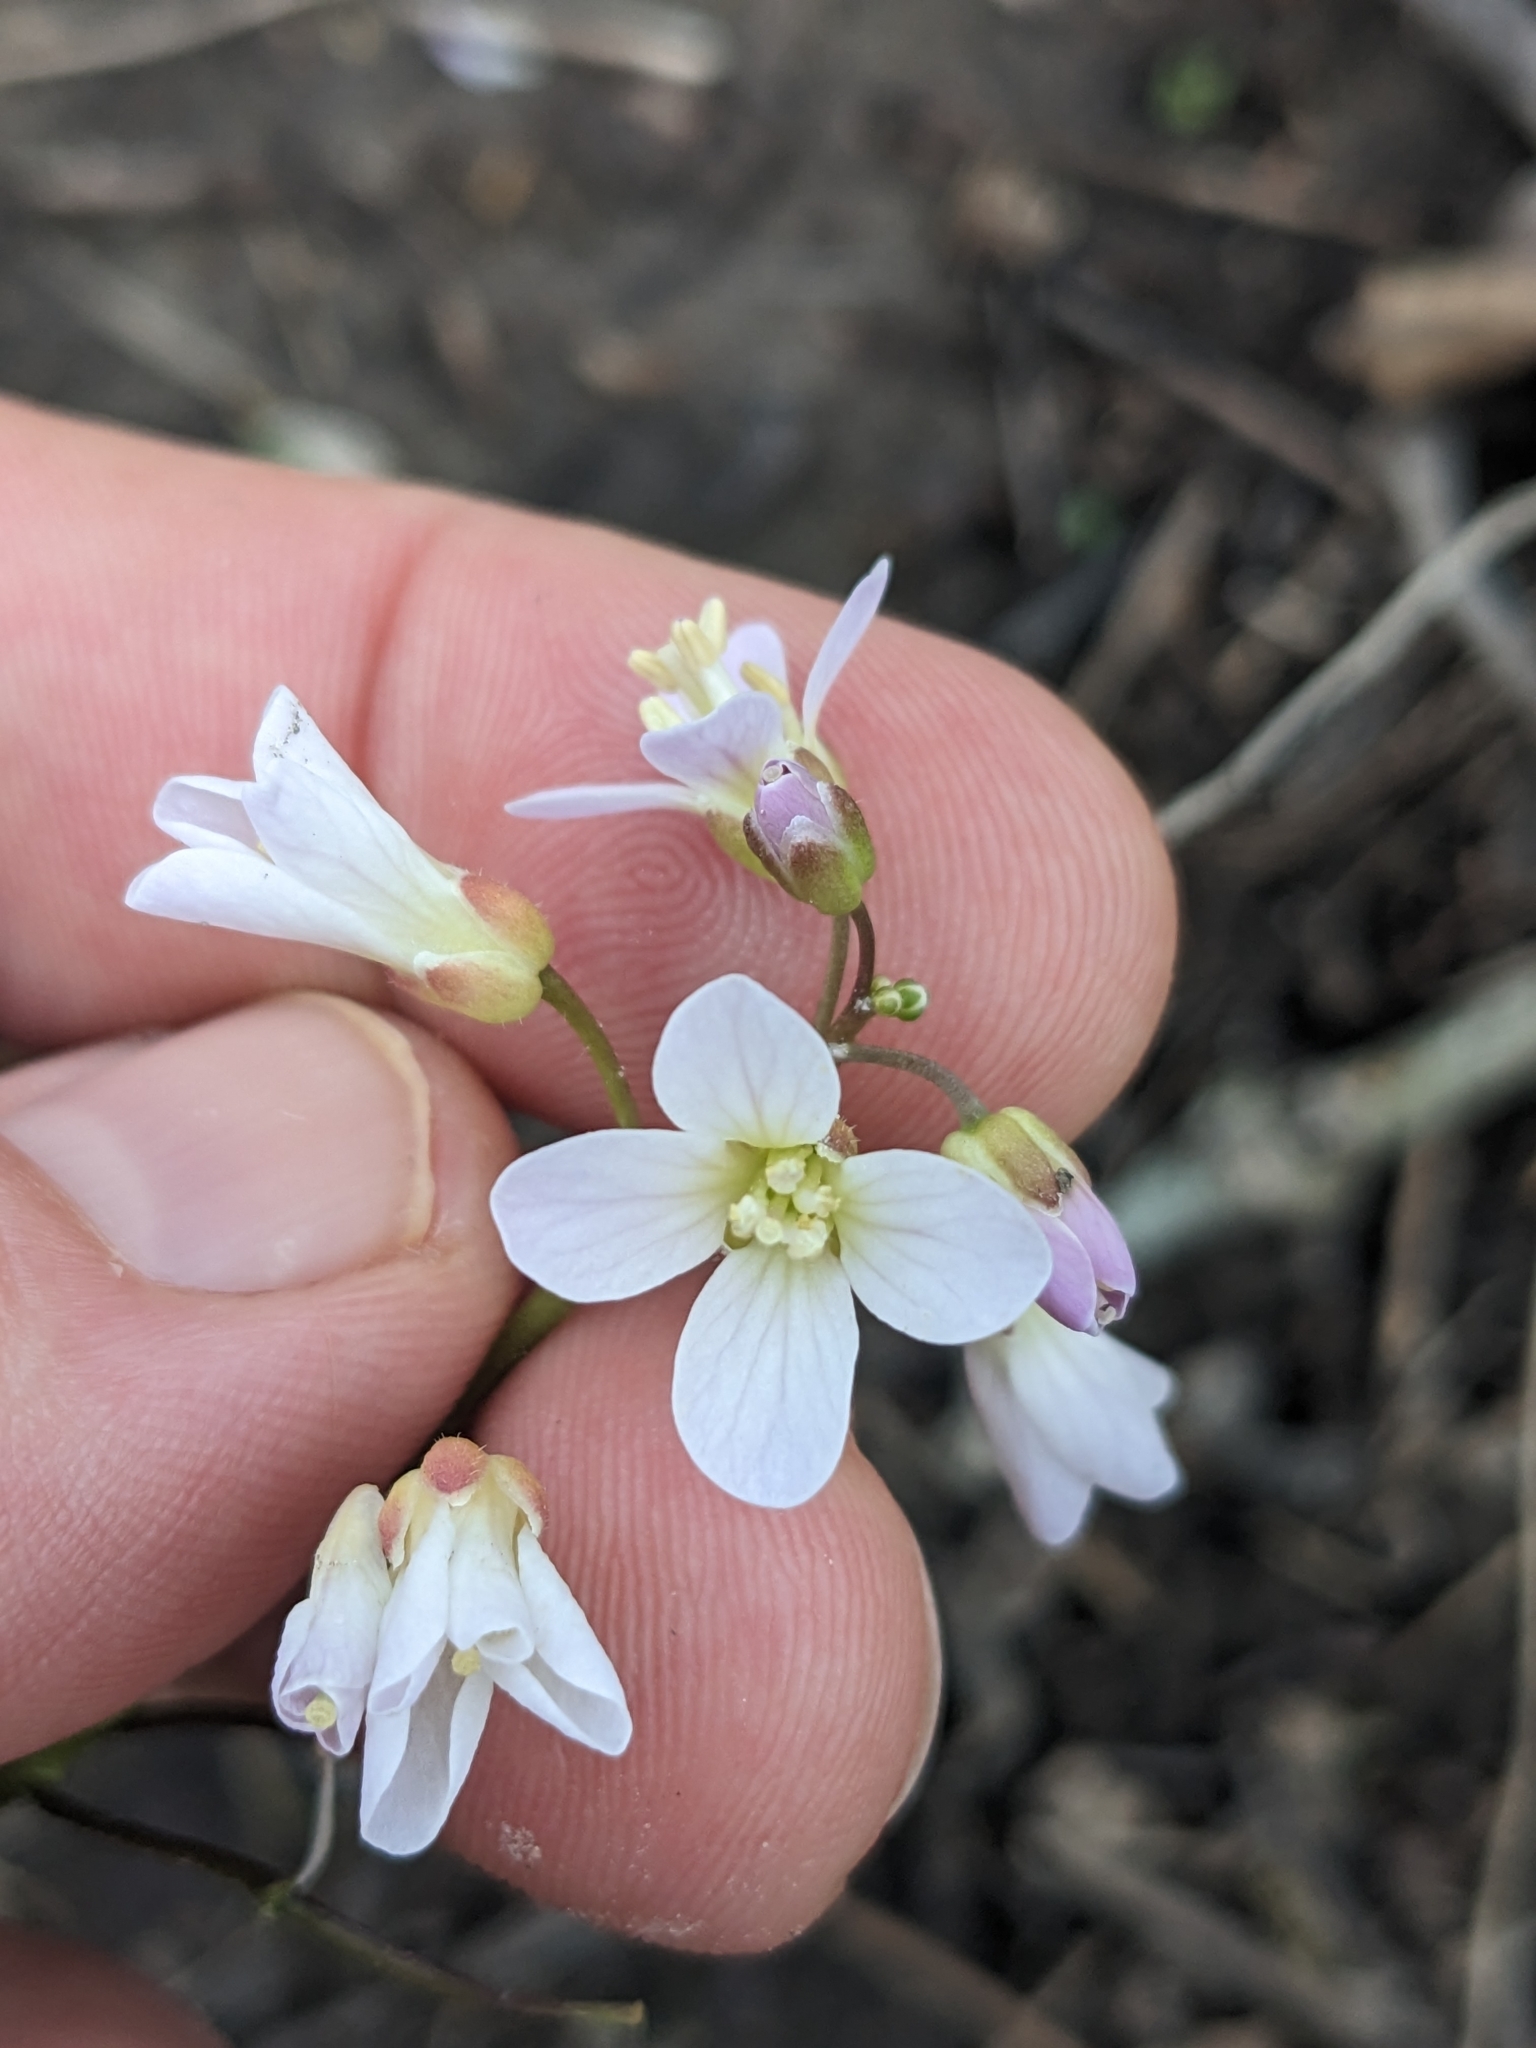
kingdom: Plantae
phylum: Tracheophyta
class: Magnoliopsida
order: Brassicales
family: Brassicaceae
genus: Cardamine
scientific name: Cardamine douglassii
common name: Purple cress
